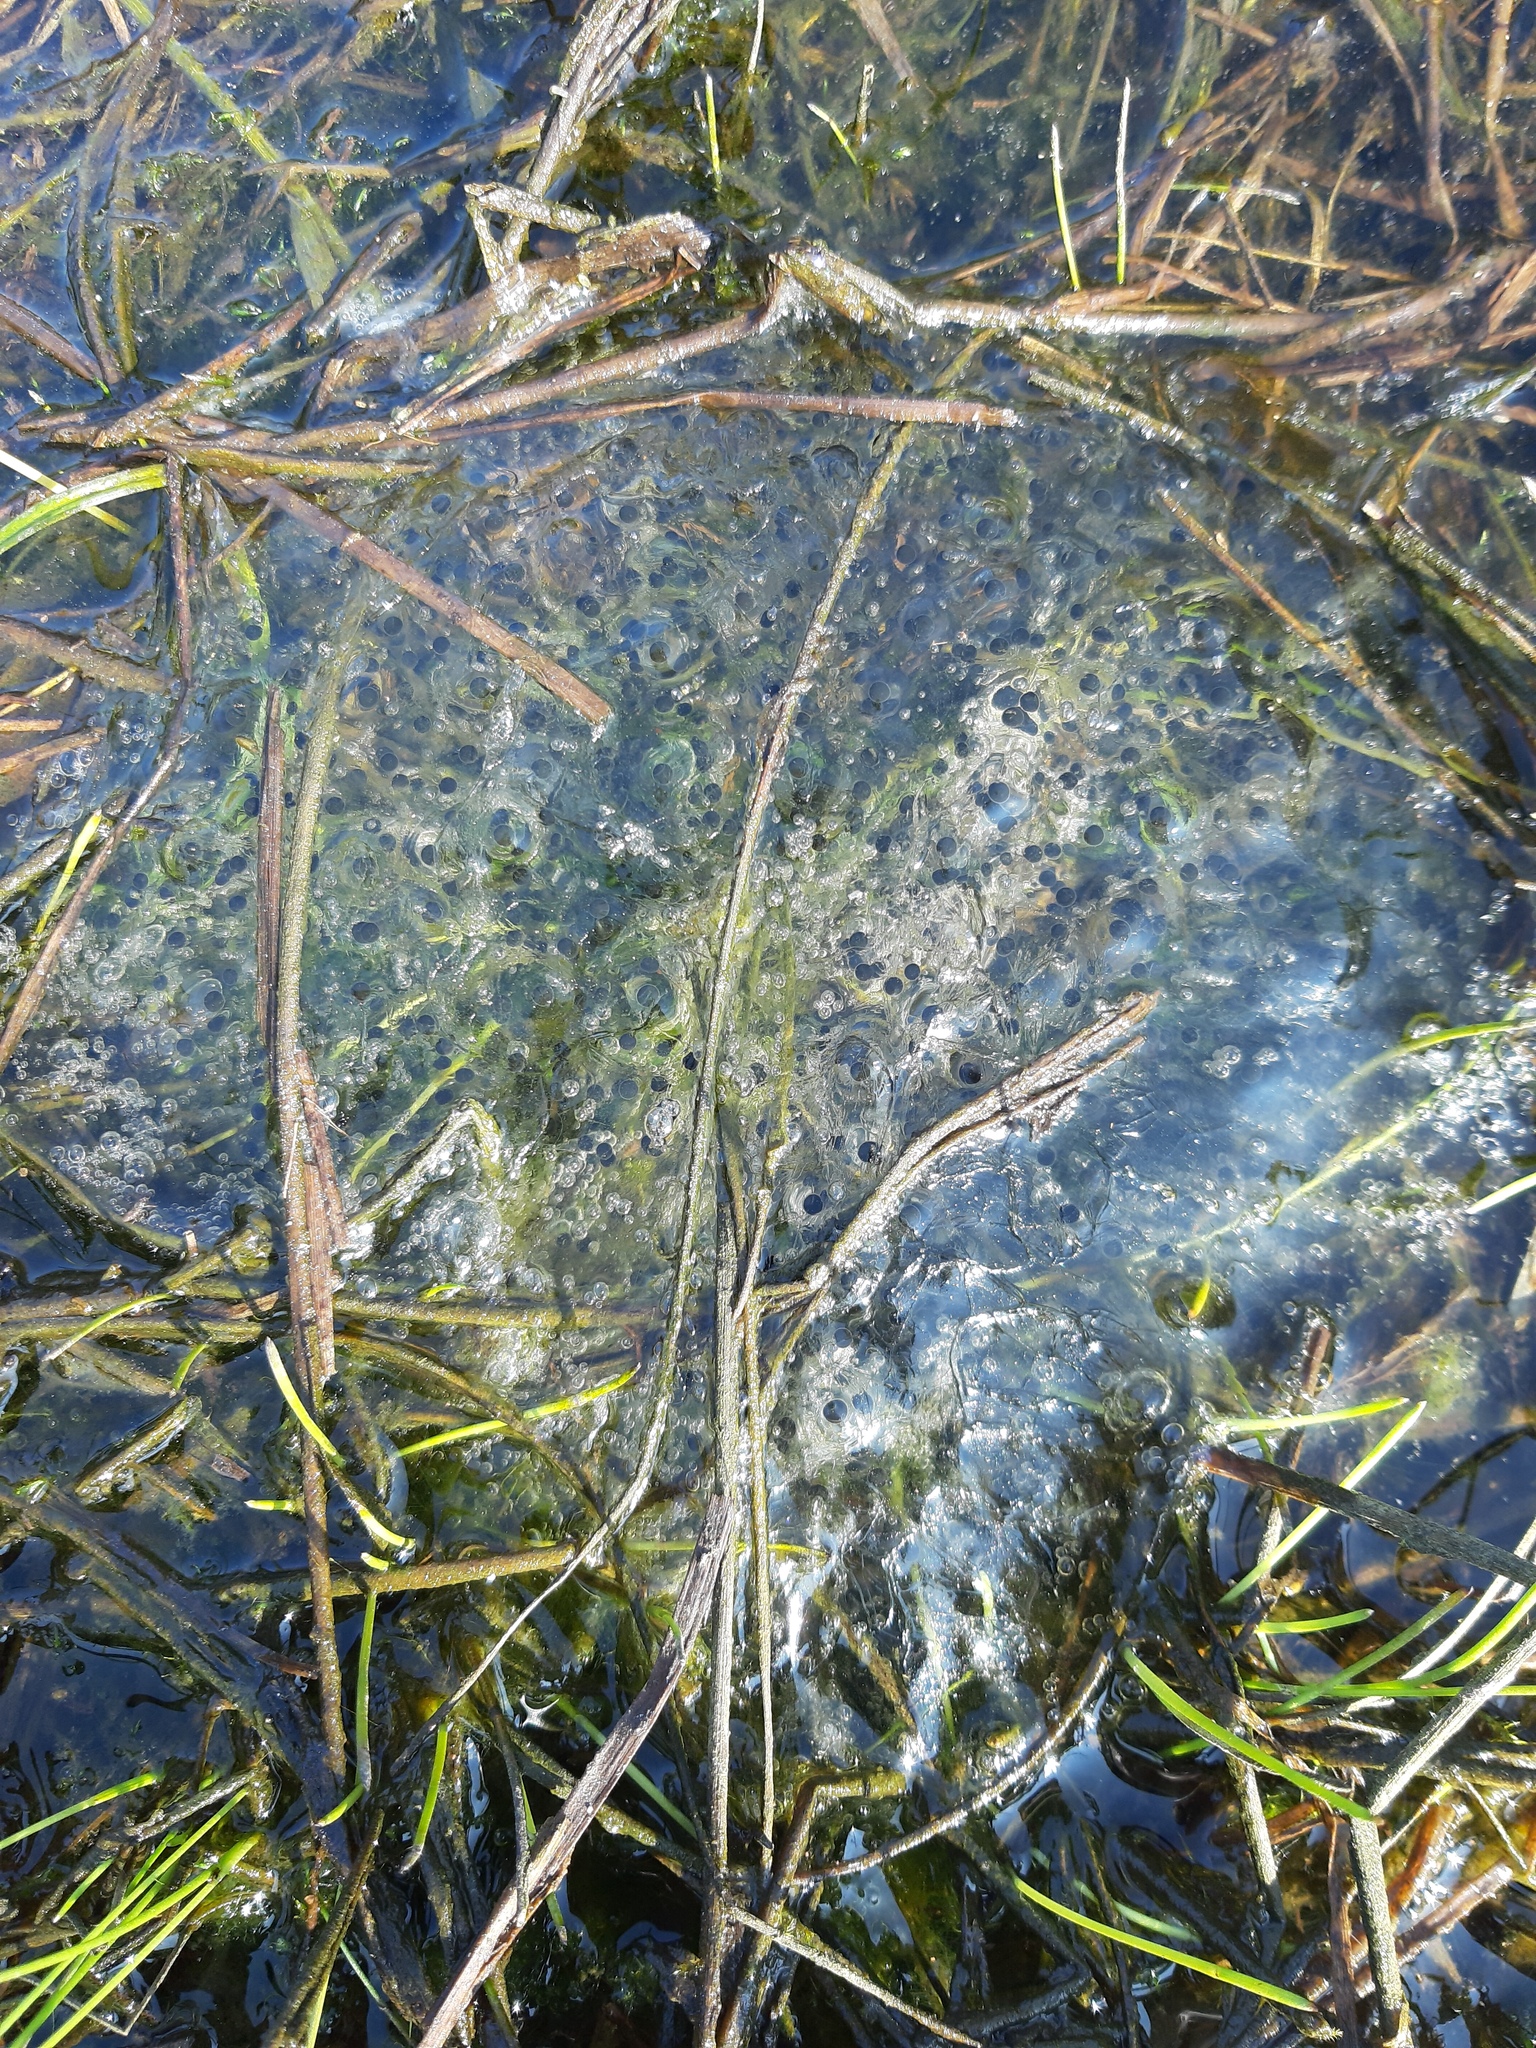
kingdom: Animalia
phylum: Chordata
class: Amphibia
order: Anura
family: Ranidae
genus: Rana
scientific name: Rana dalmatina
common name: Agile frog
